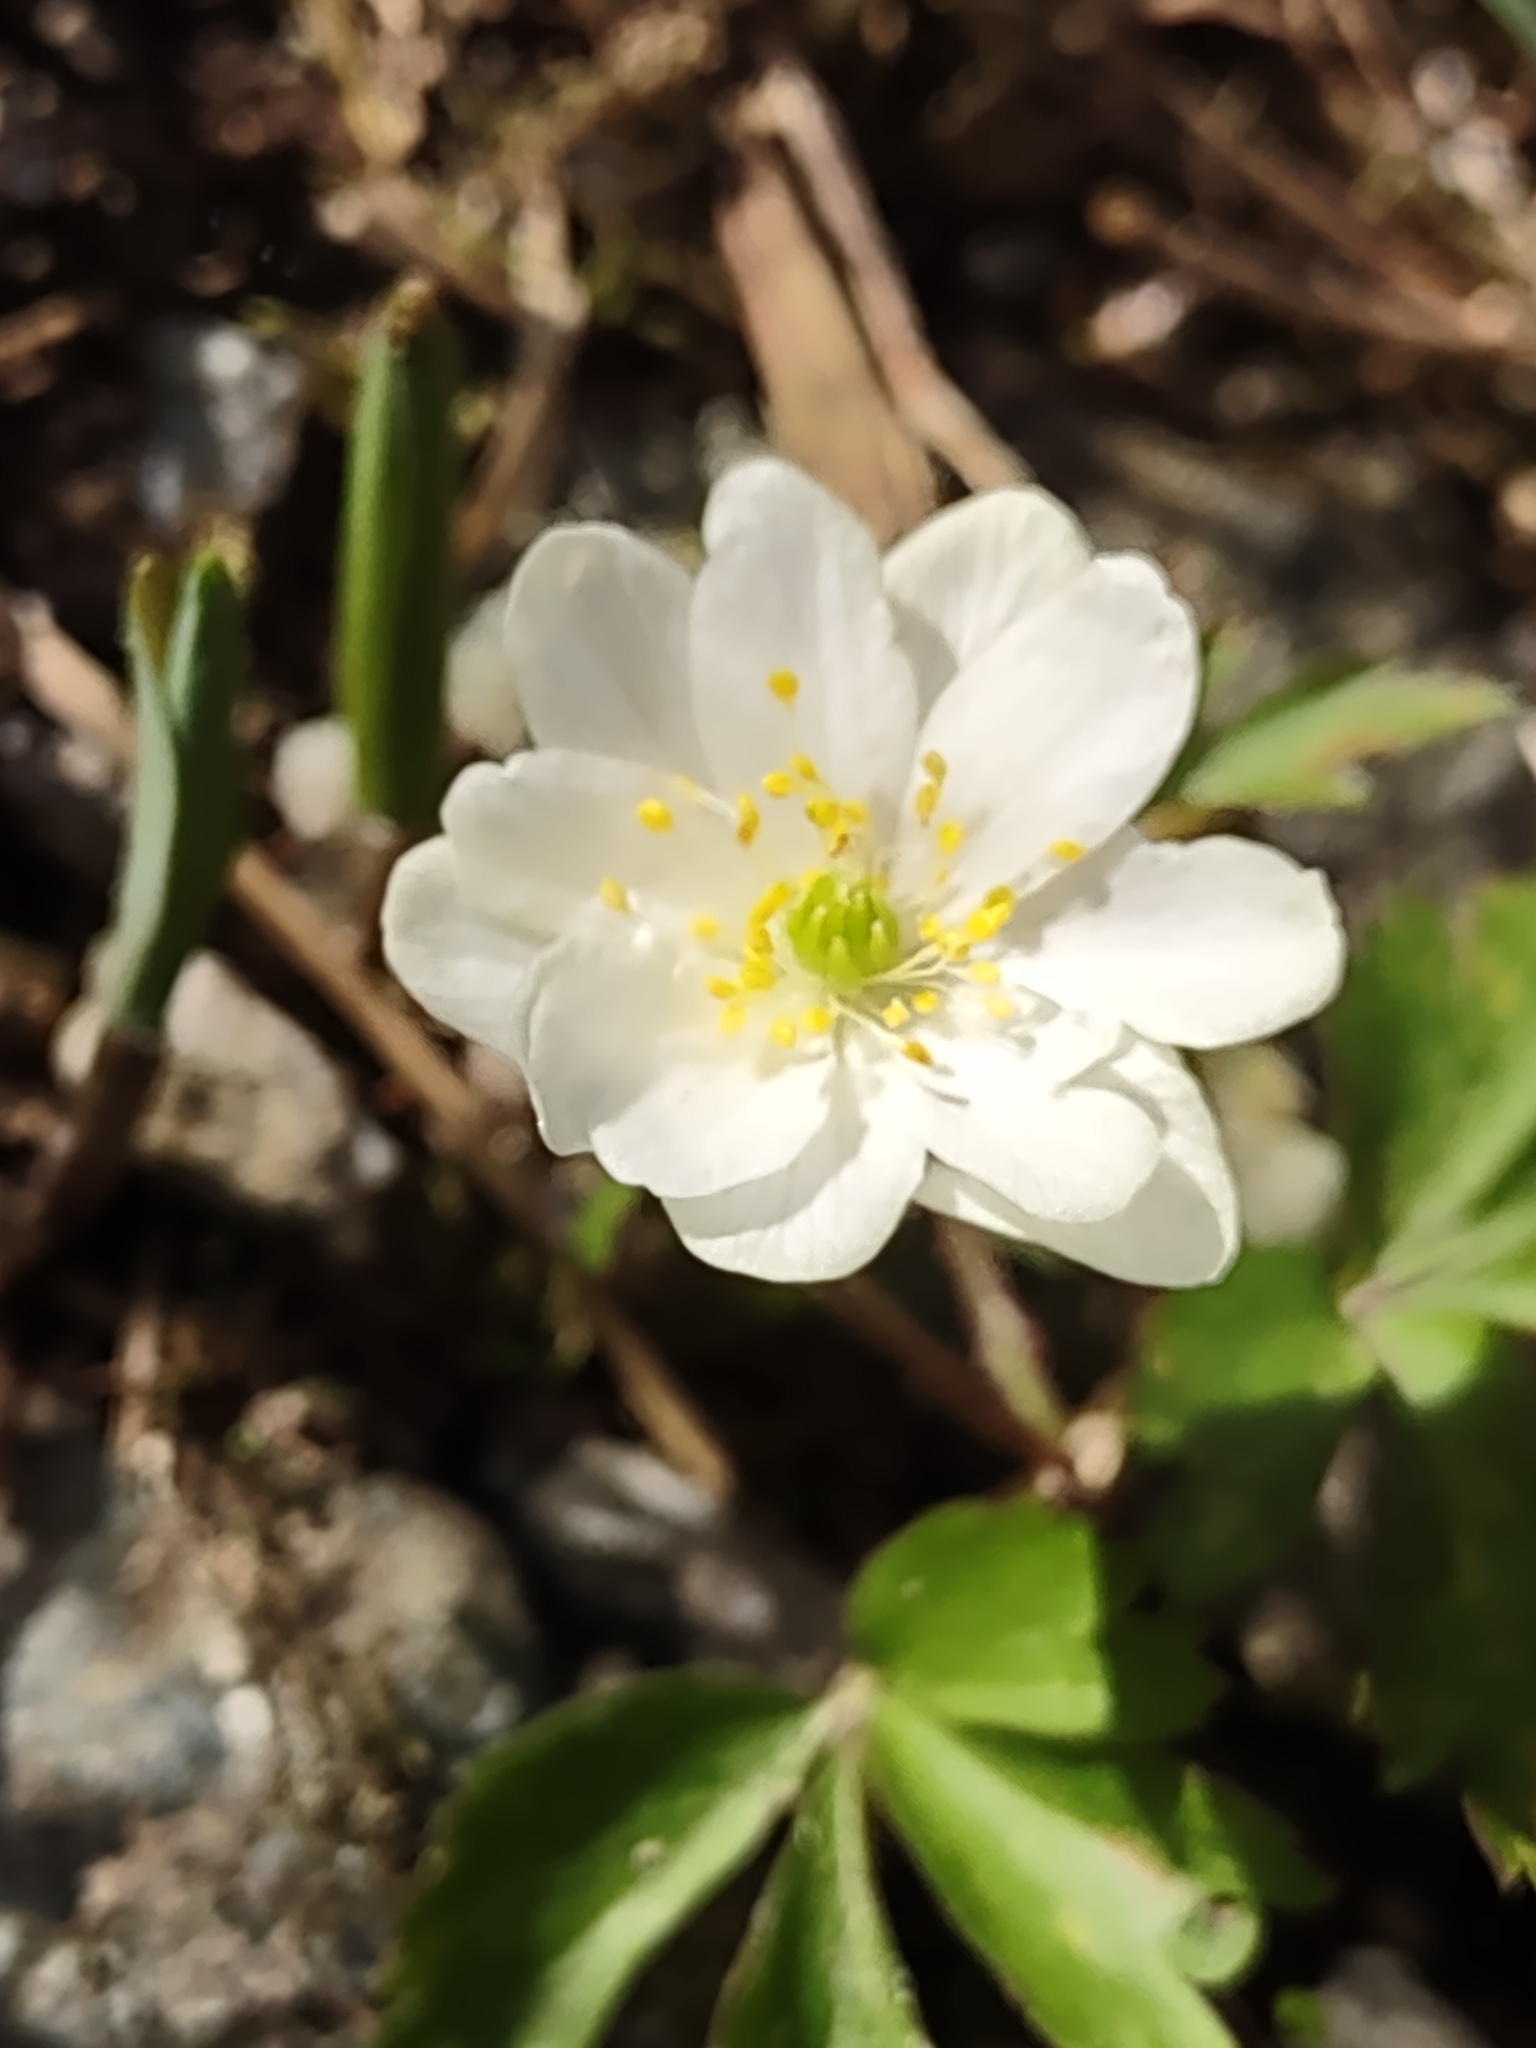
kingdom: Plantae
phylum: Tracheophyta
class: Magnoliopsida
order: Ranunculales
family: Ranunculaceae
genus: Anemone
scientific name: Anemone nemorosa
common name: Wood anemone
